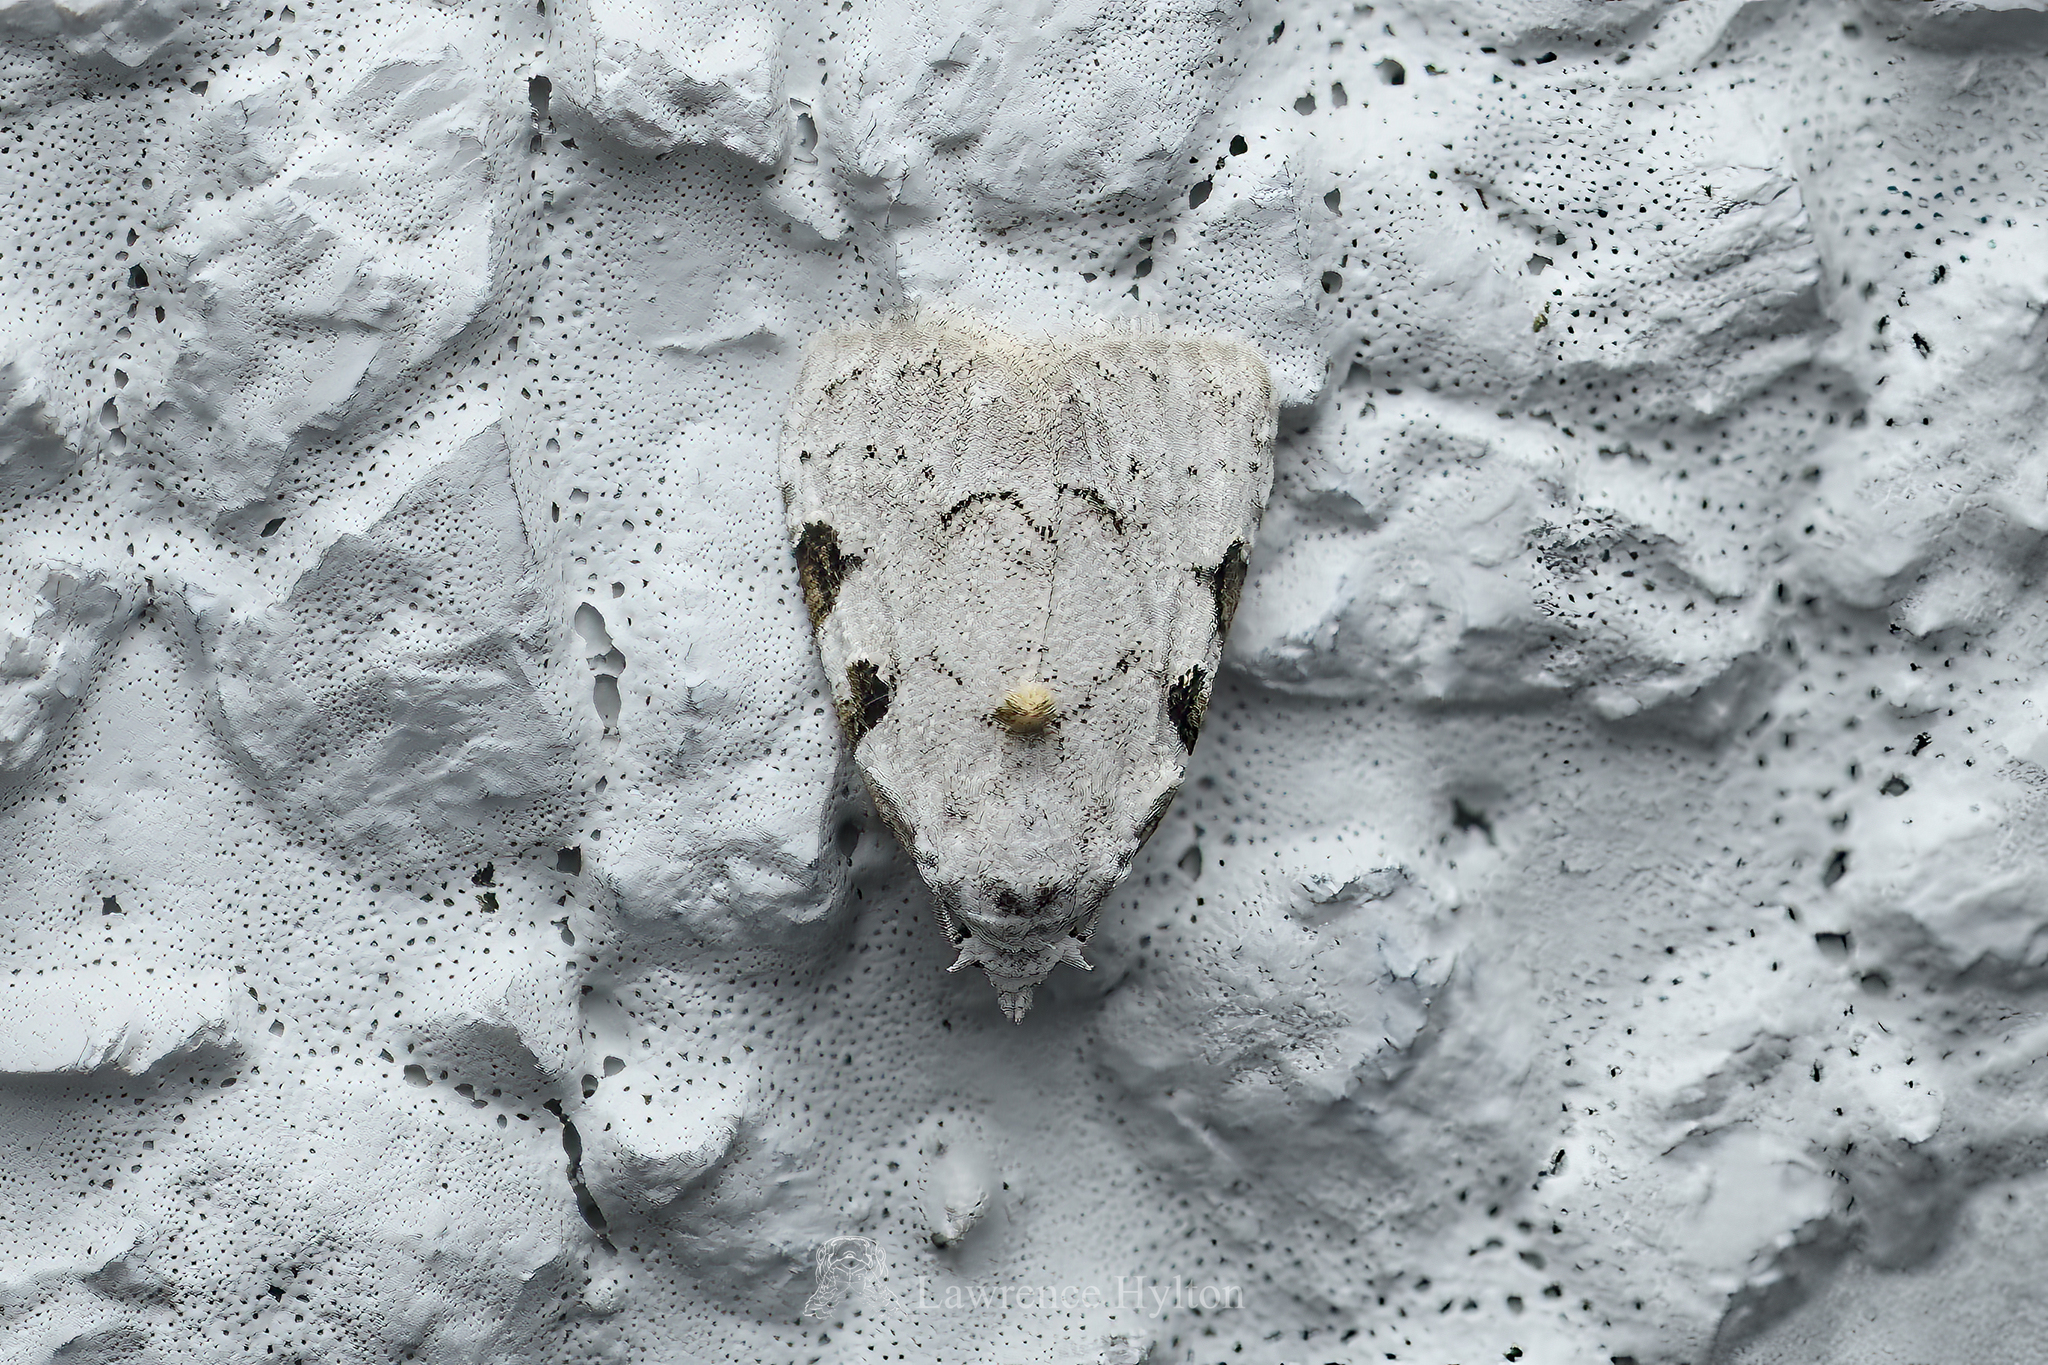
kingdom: Animalia
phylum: Arthropoda
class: Insecta
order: Lepidoptera
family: Nolidae
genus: Nola
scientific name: Nola pascua
